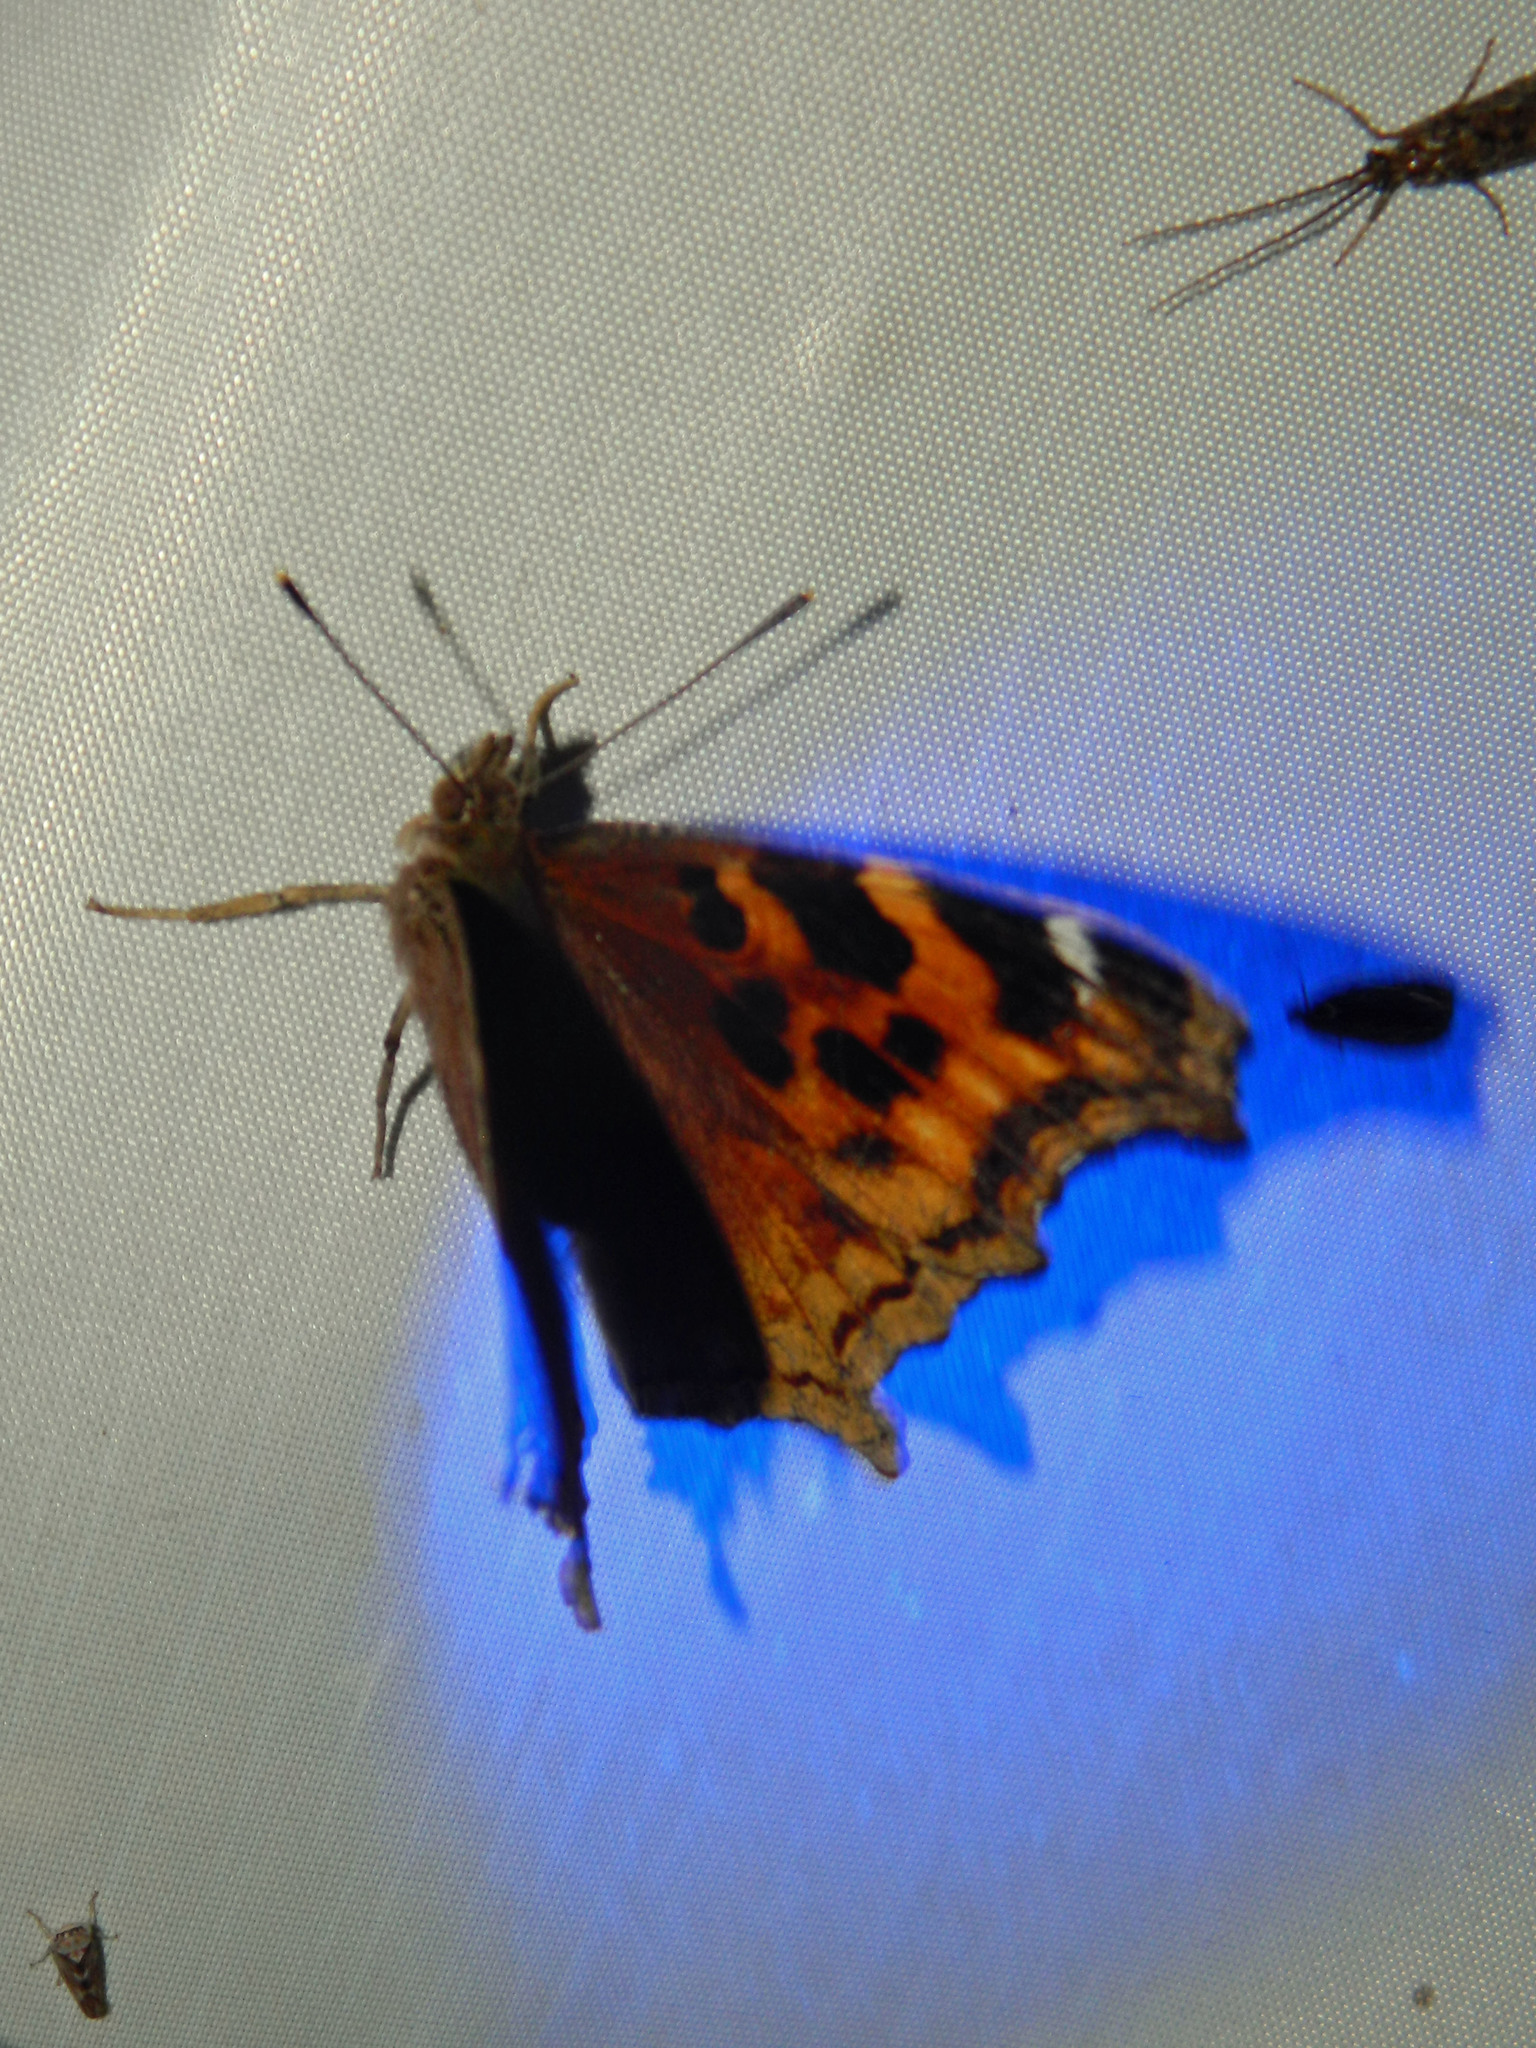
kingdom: Animalia
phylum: Arthropoda
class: Insecta
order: Lepidoptera
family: Nymphalidae
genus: Polygonia
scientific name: Polygonia vaualbum
